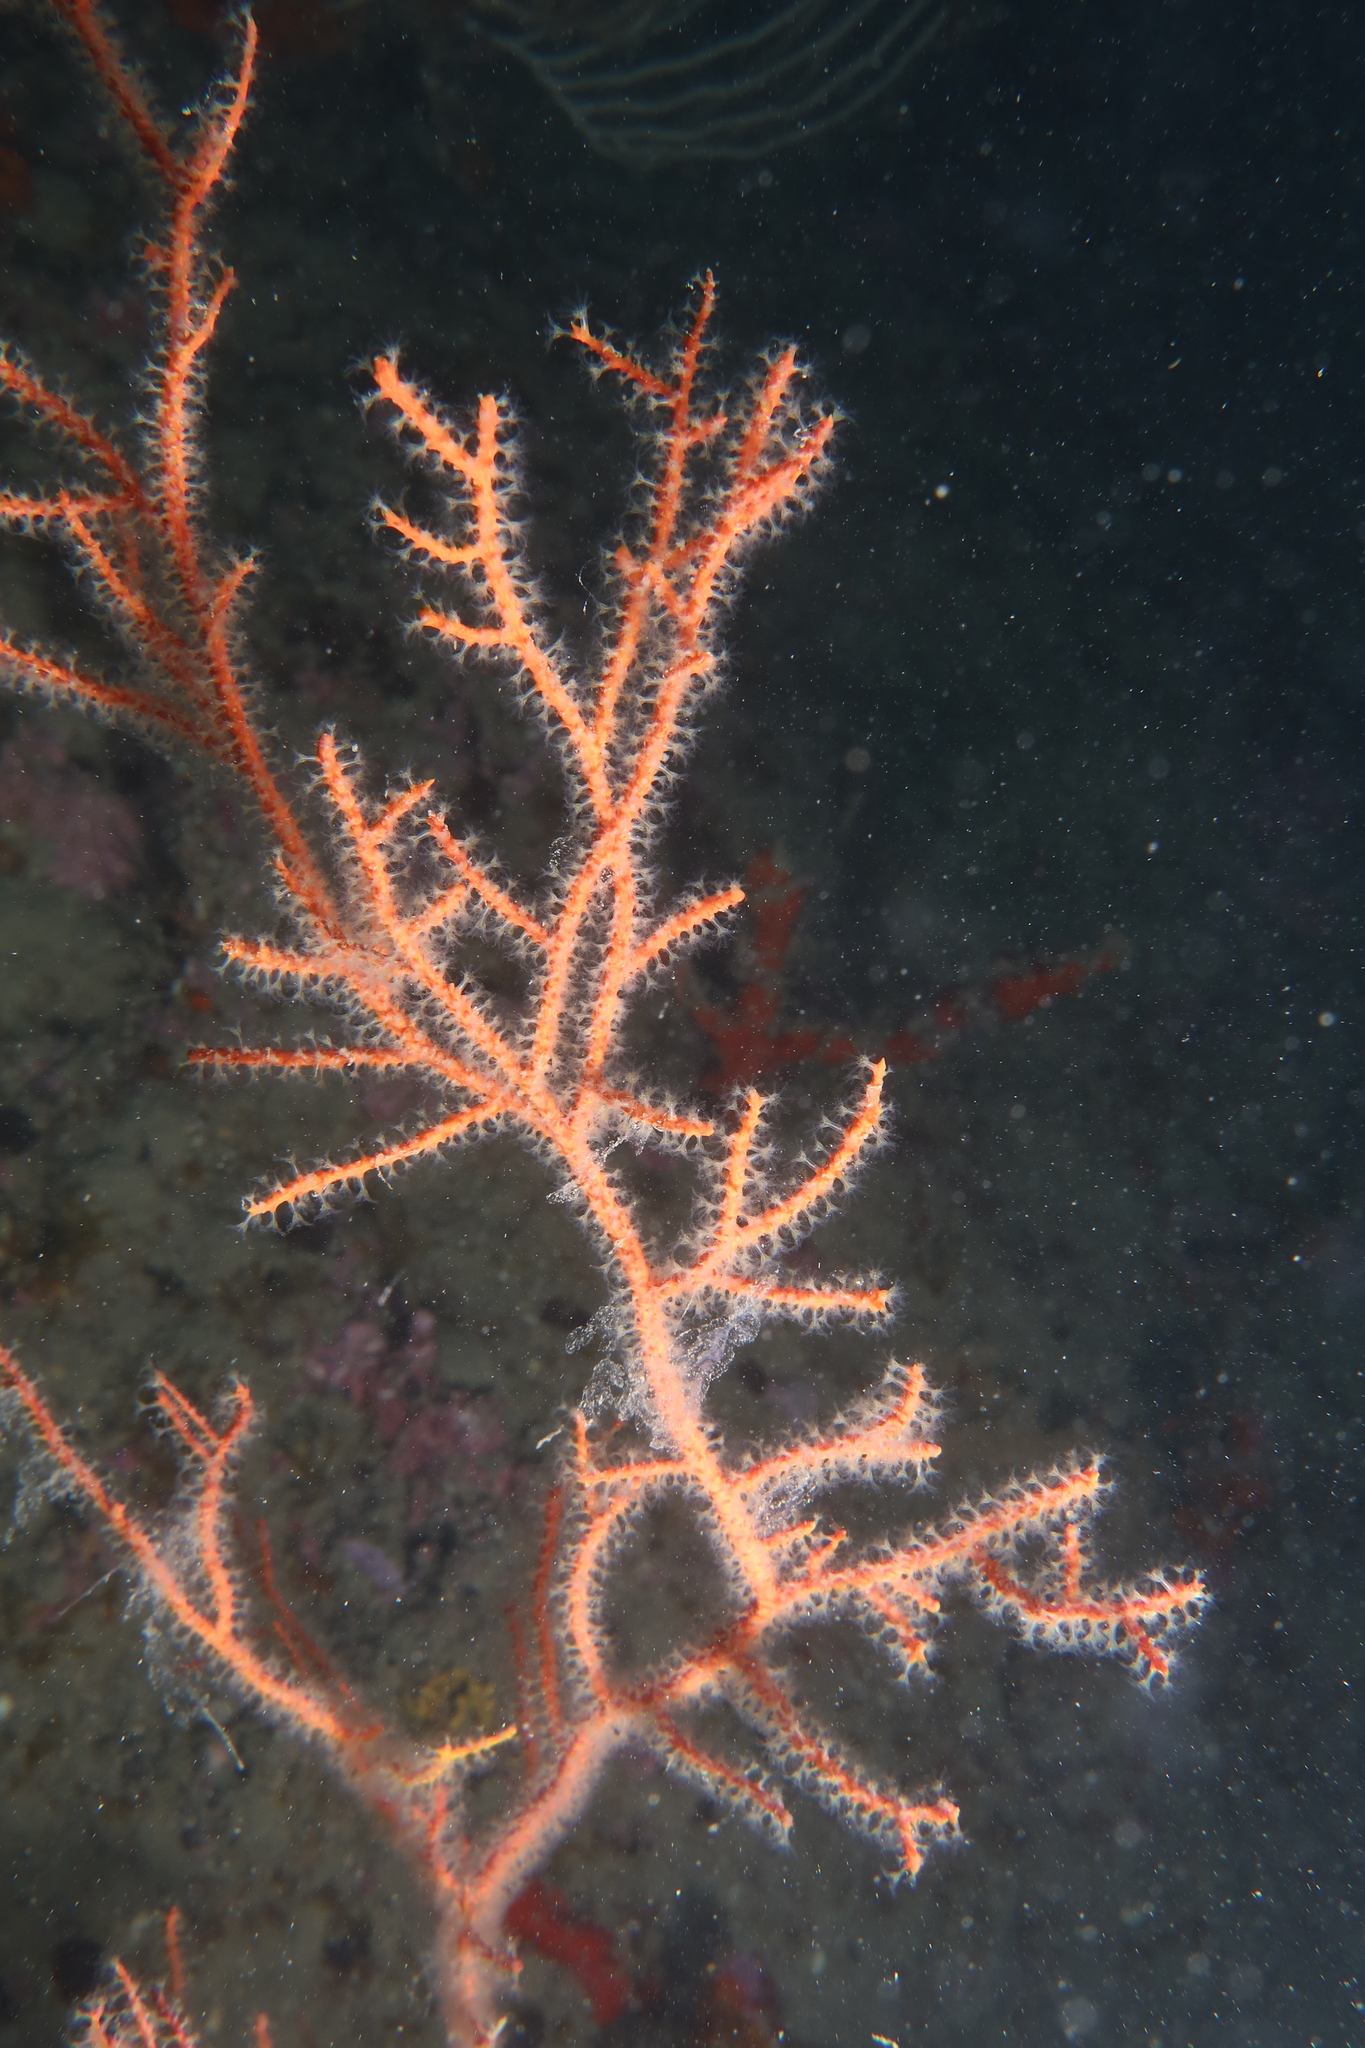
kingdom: Animalia
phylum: Cnidaria
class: Anthozoa
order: Malacalcyonacea
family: Gorgoniidae
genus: Leptogorgia
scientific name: Leptogorgia sarmentosa
